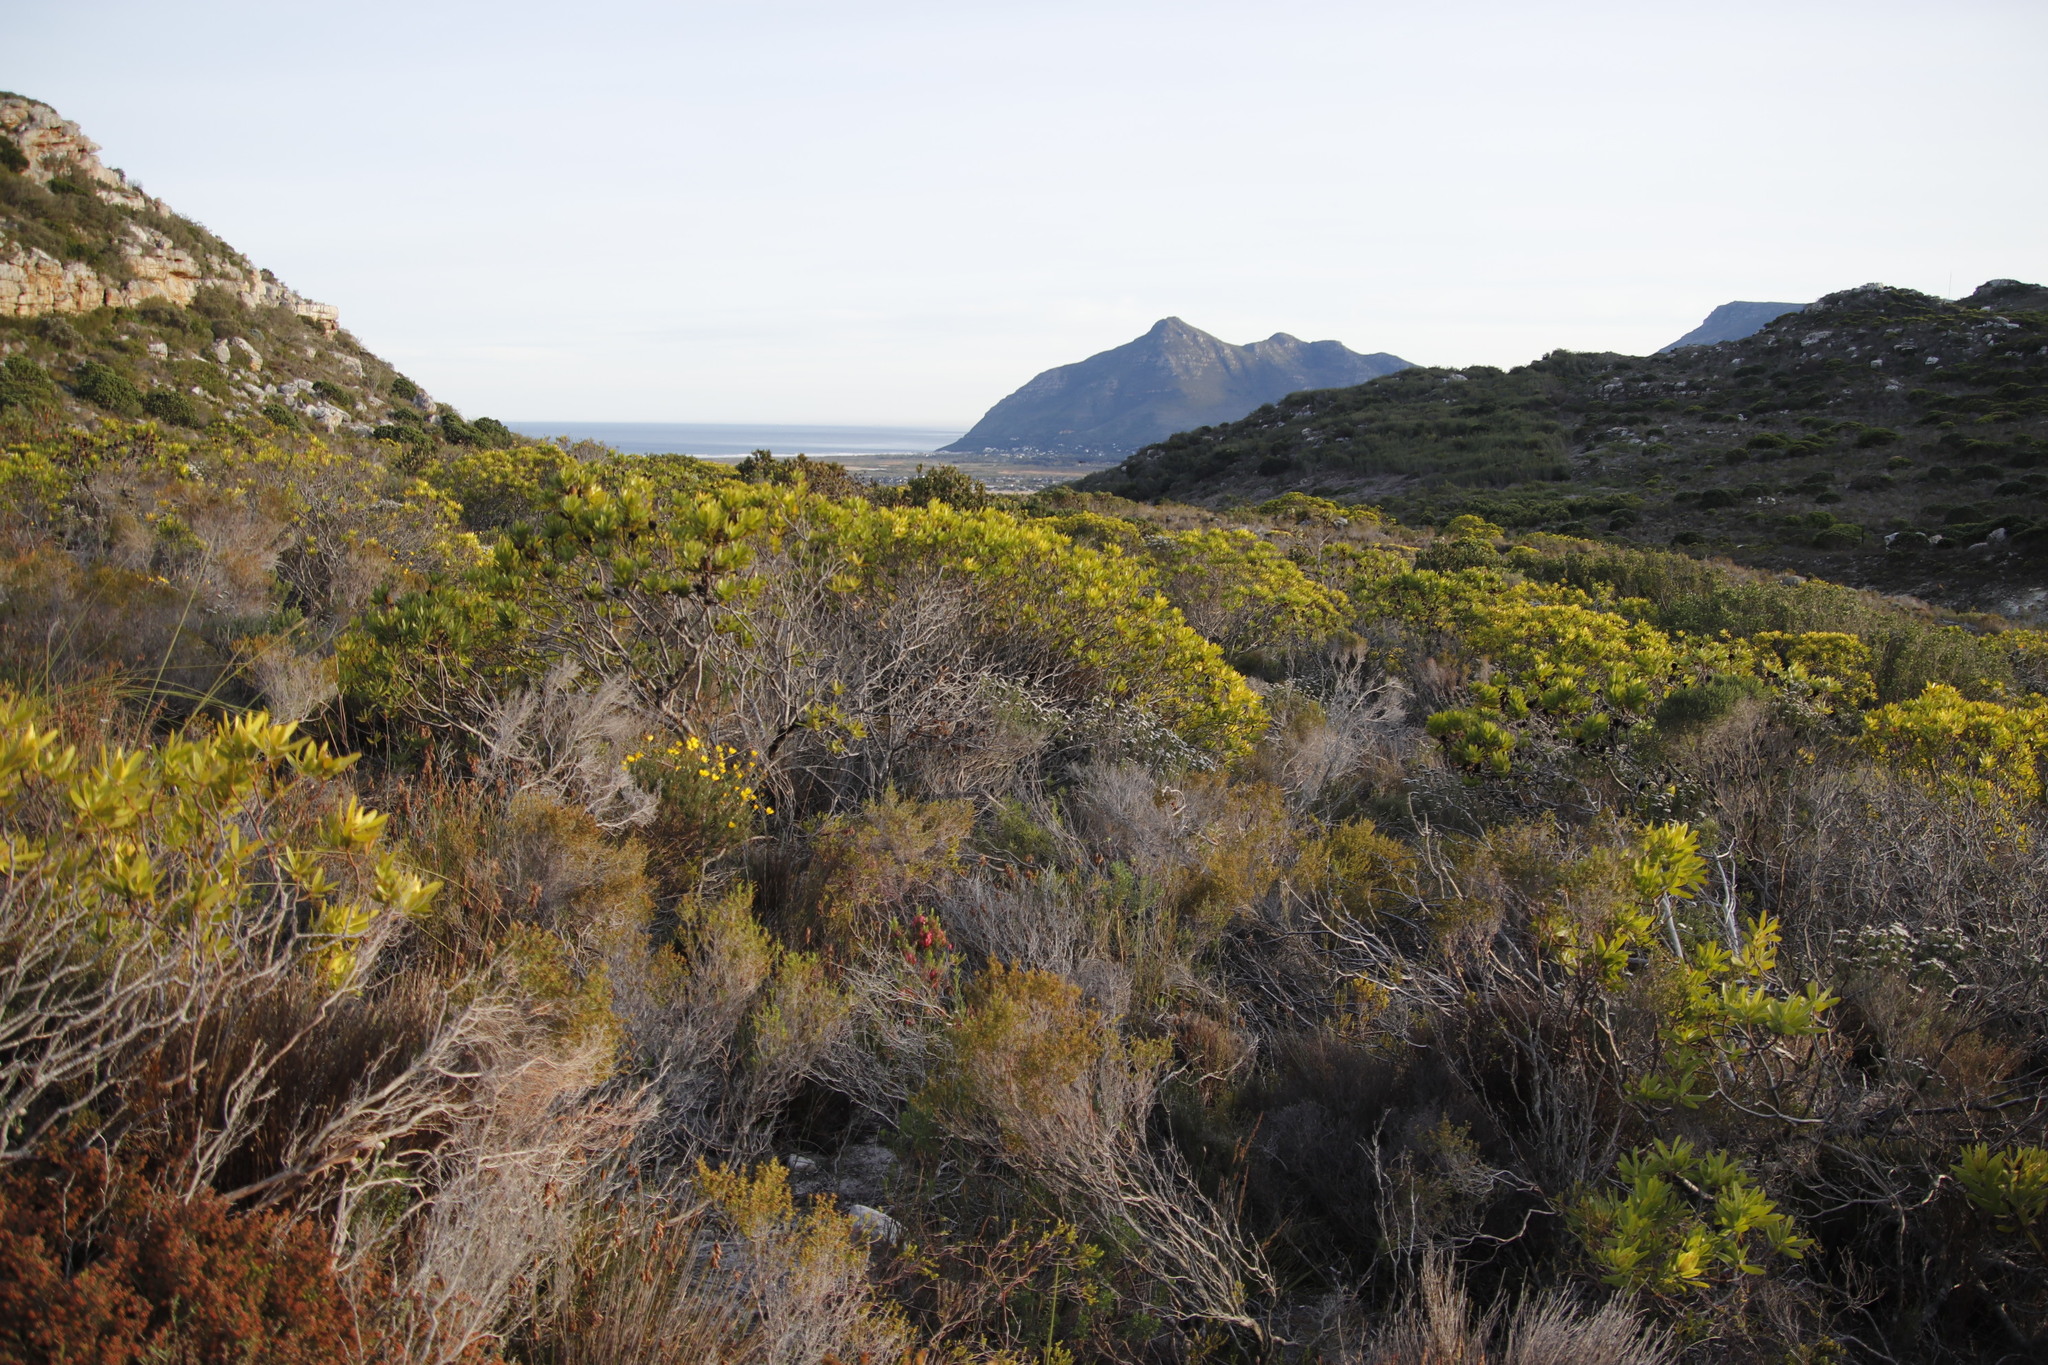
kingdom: Plantae
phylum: Tracheophyta
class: Magnoliopsida
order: Proteales
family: Proteaceae
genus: Leucadendron
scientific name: Leucadendron laureolum
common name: Golden sunshinebush
